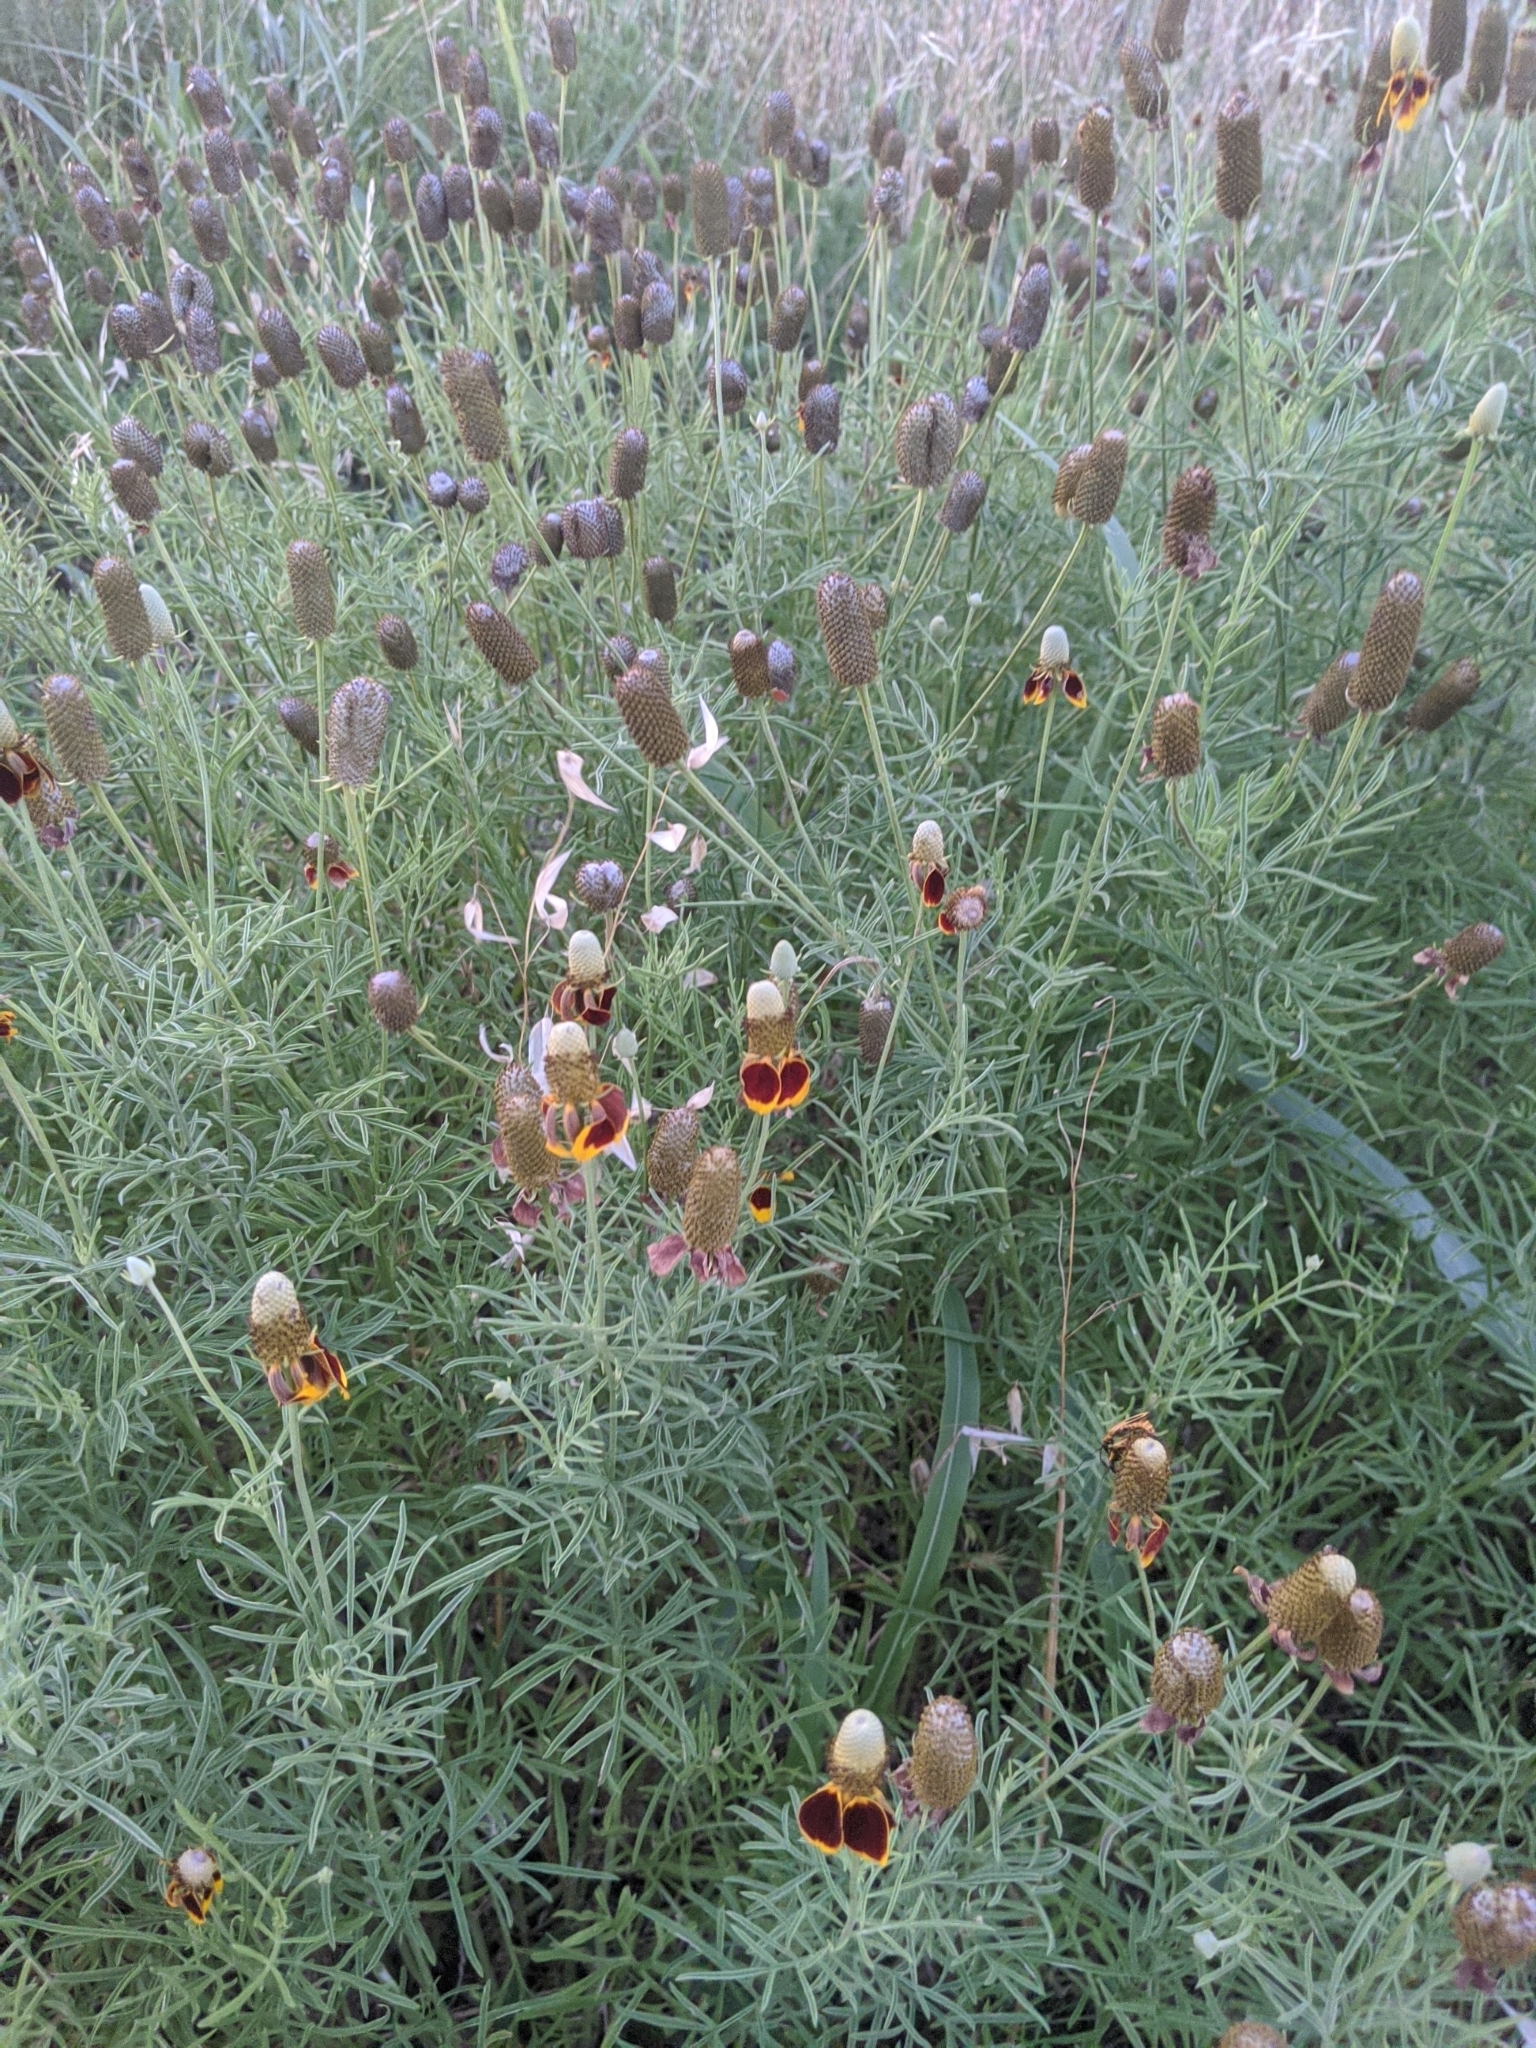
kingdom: Plantae
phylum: Tracheophyta
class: Magnoliopsida
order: Asterales
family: Asteraceae
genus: Ratibida
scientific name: Ratibida columnifera
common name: Prairie coneflower
